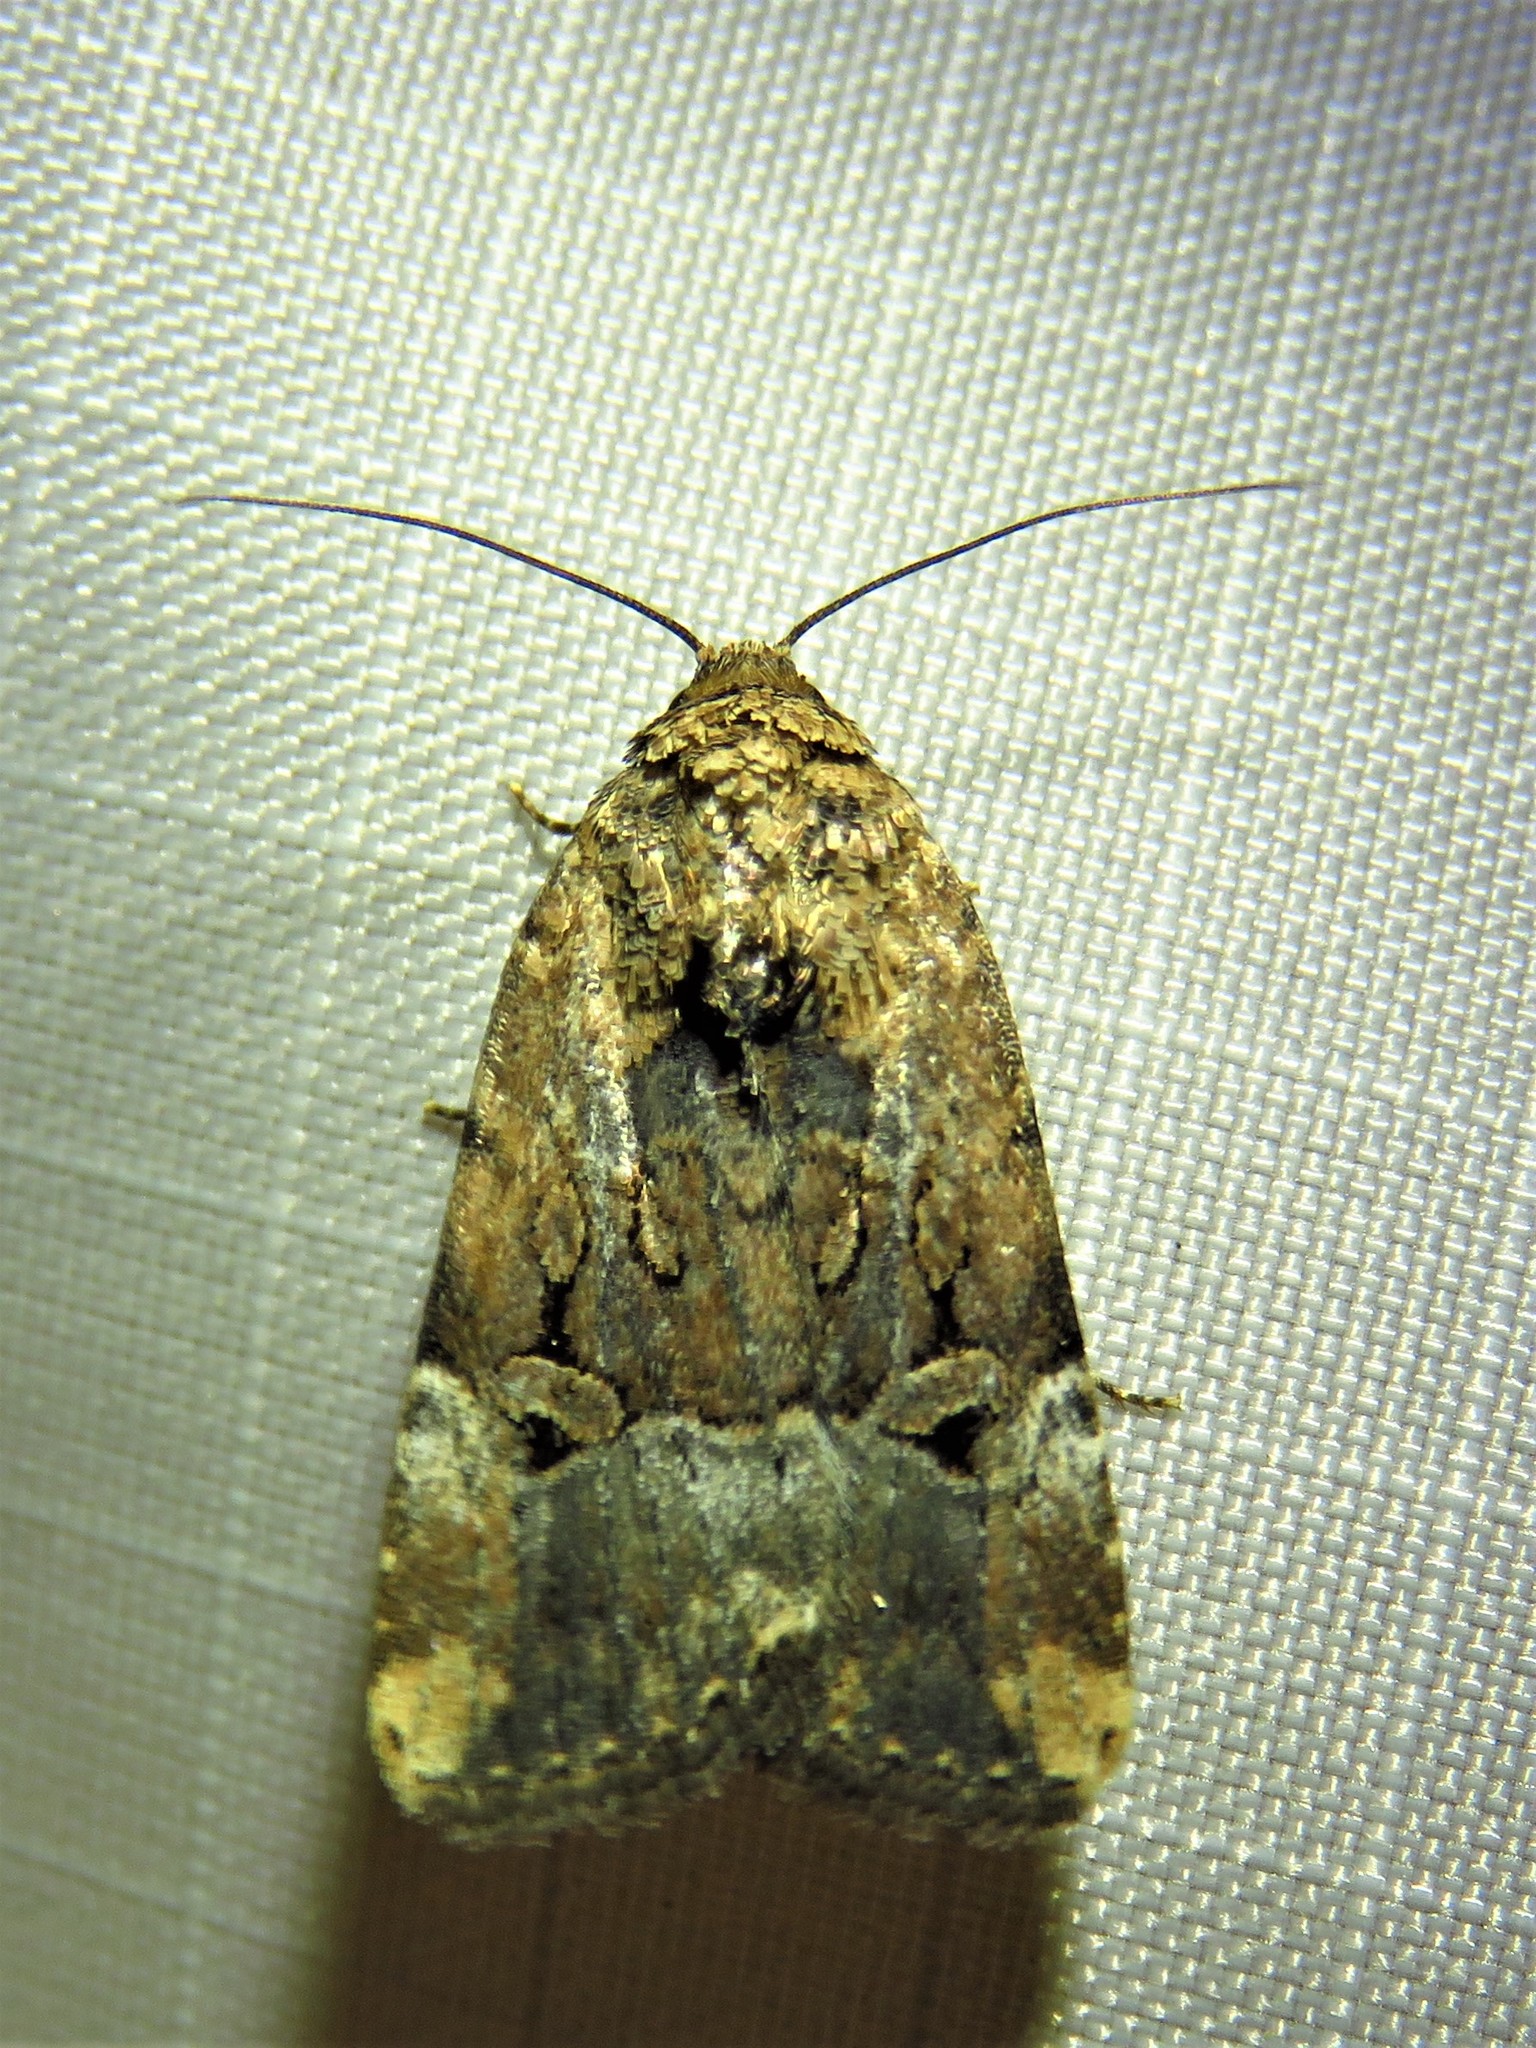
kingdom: Animalia
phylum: Arthropoda
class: Insecta
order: Lepidoptera
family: Noctuidae
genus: Elaphria
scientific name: Elaphria chalcedonia
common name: Chalcedony midget
